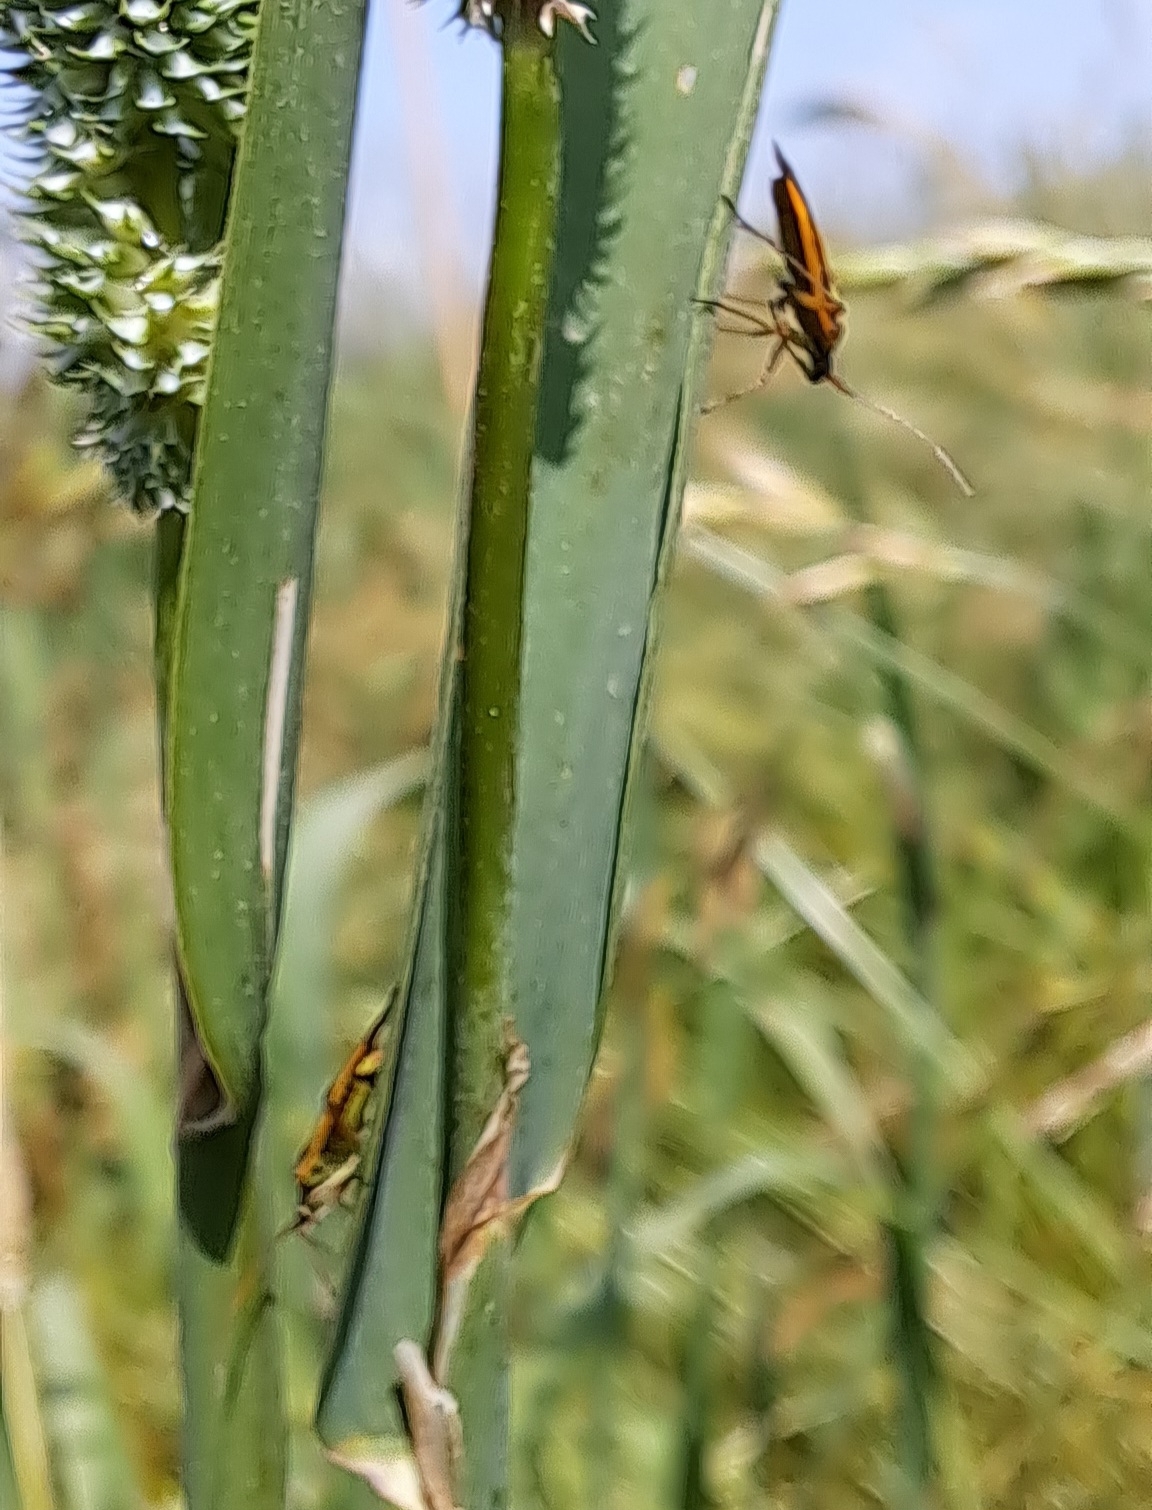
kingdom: Animalia
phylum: Arthropoda
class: Insecta
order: Hemiptera
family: Miridae
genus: Stenotus
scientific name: Stenotus binotatus
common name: Plant bug
